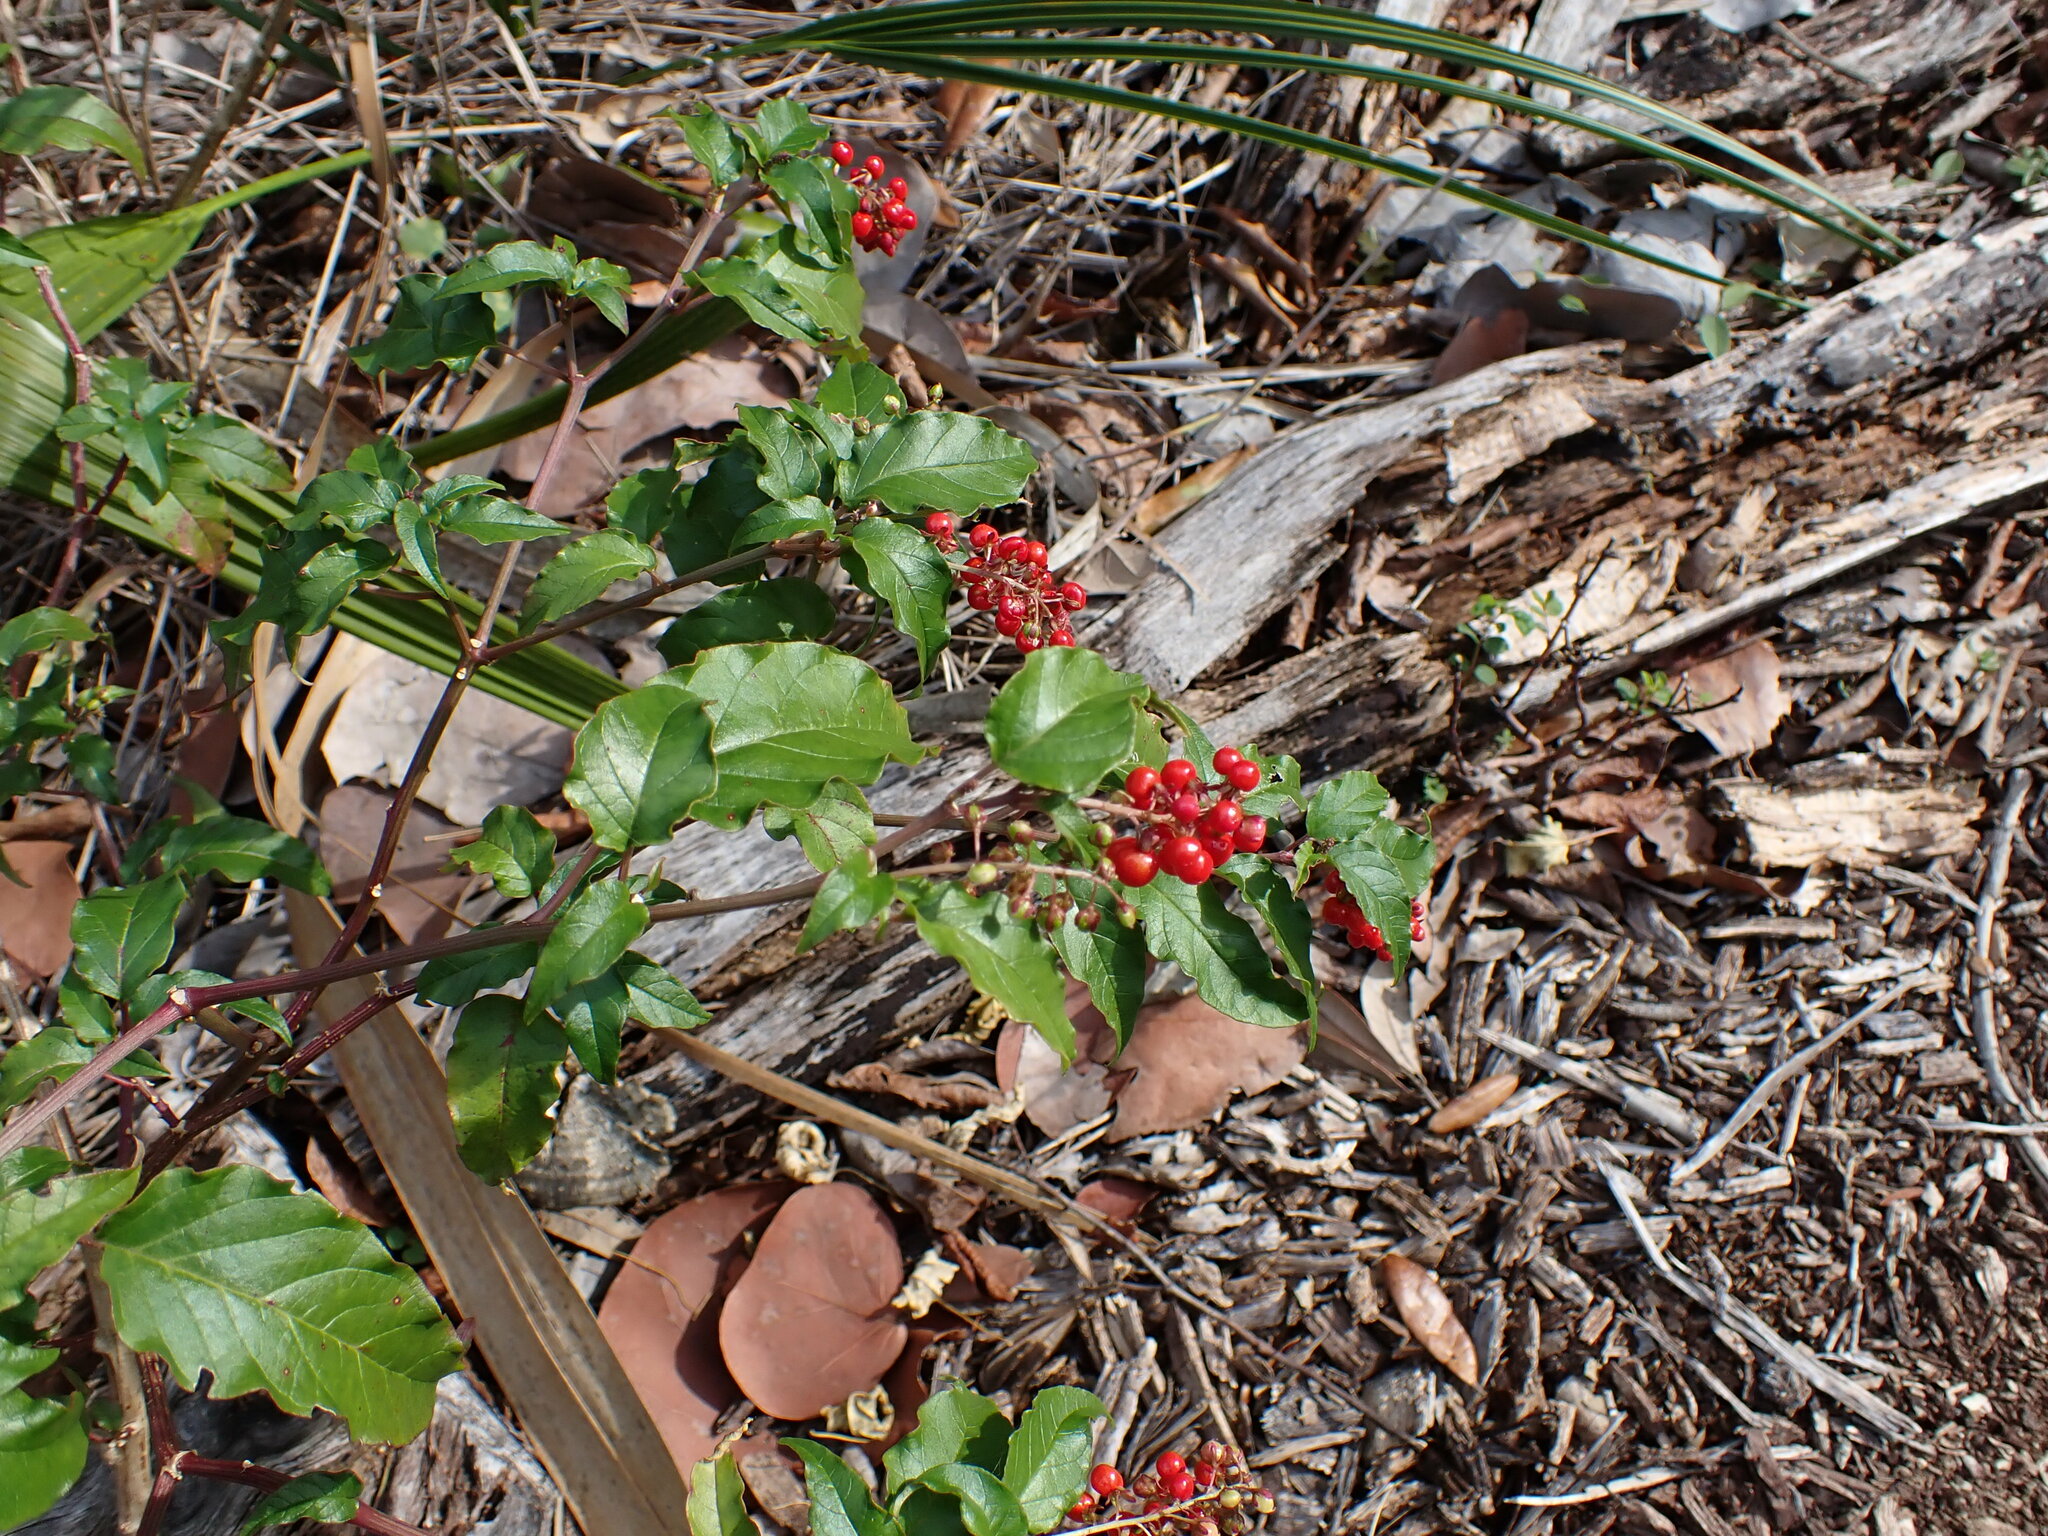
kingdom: Plantae
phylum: Tracheophyta
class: Magnoliopsida
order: Caryophyllales
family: Phytolaccaceae
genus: Rivina
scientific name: Rivina humilis
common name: Rougeplant
